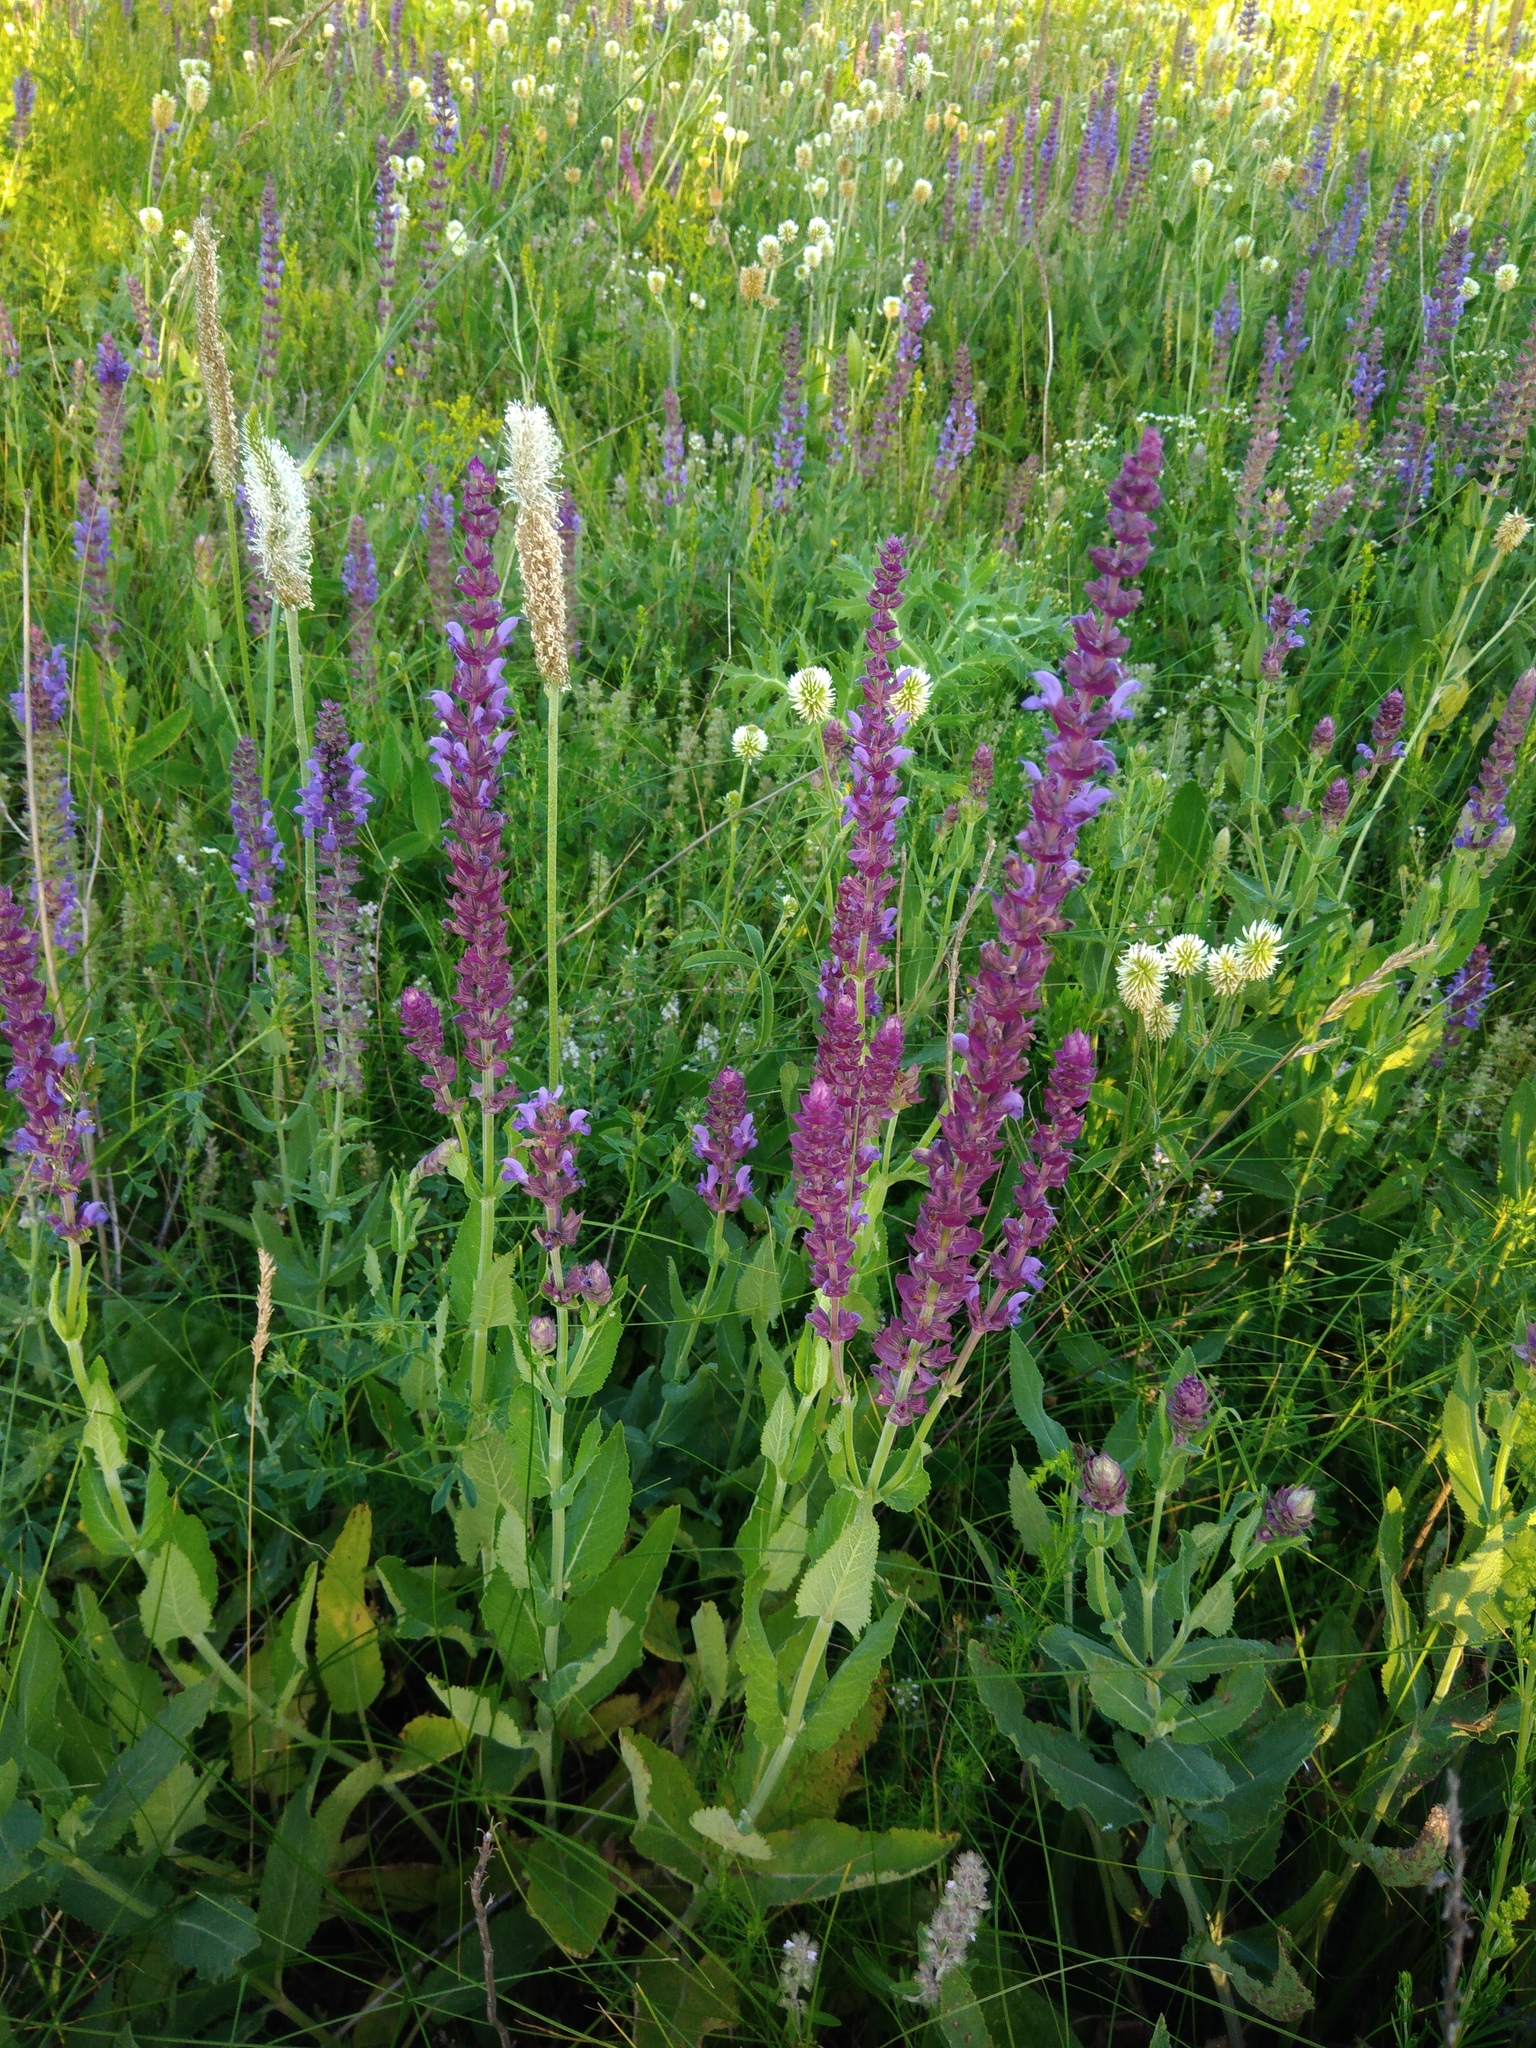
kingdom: Plantae
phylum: Tracheophyta
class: Magnoliopsida
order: Lamiales
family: Lamiaceae
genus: Salvia
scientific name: Salvia nemorosa
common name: Balkan clary
